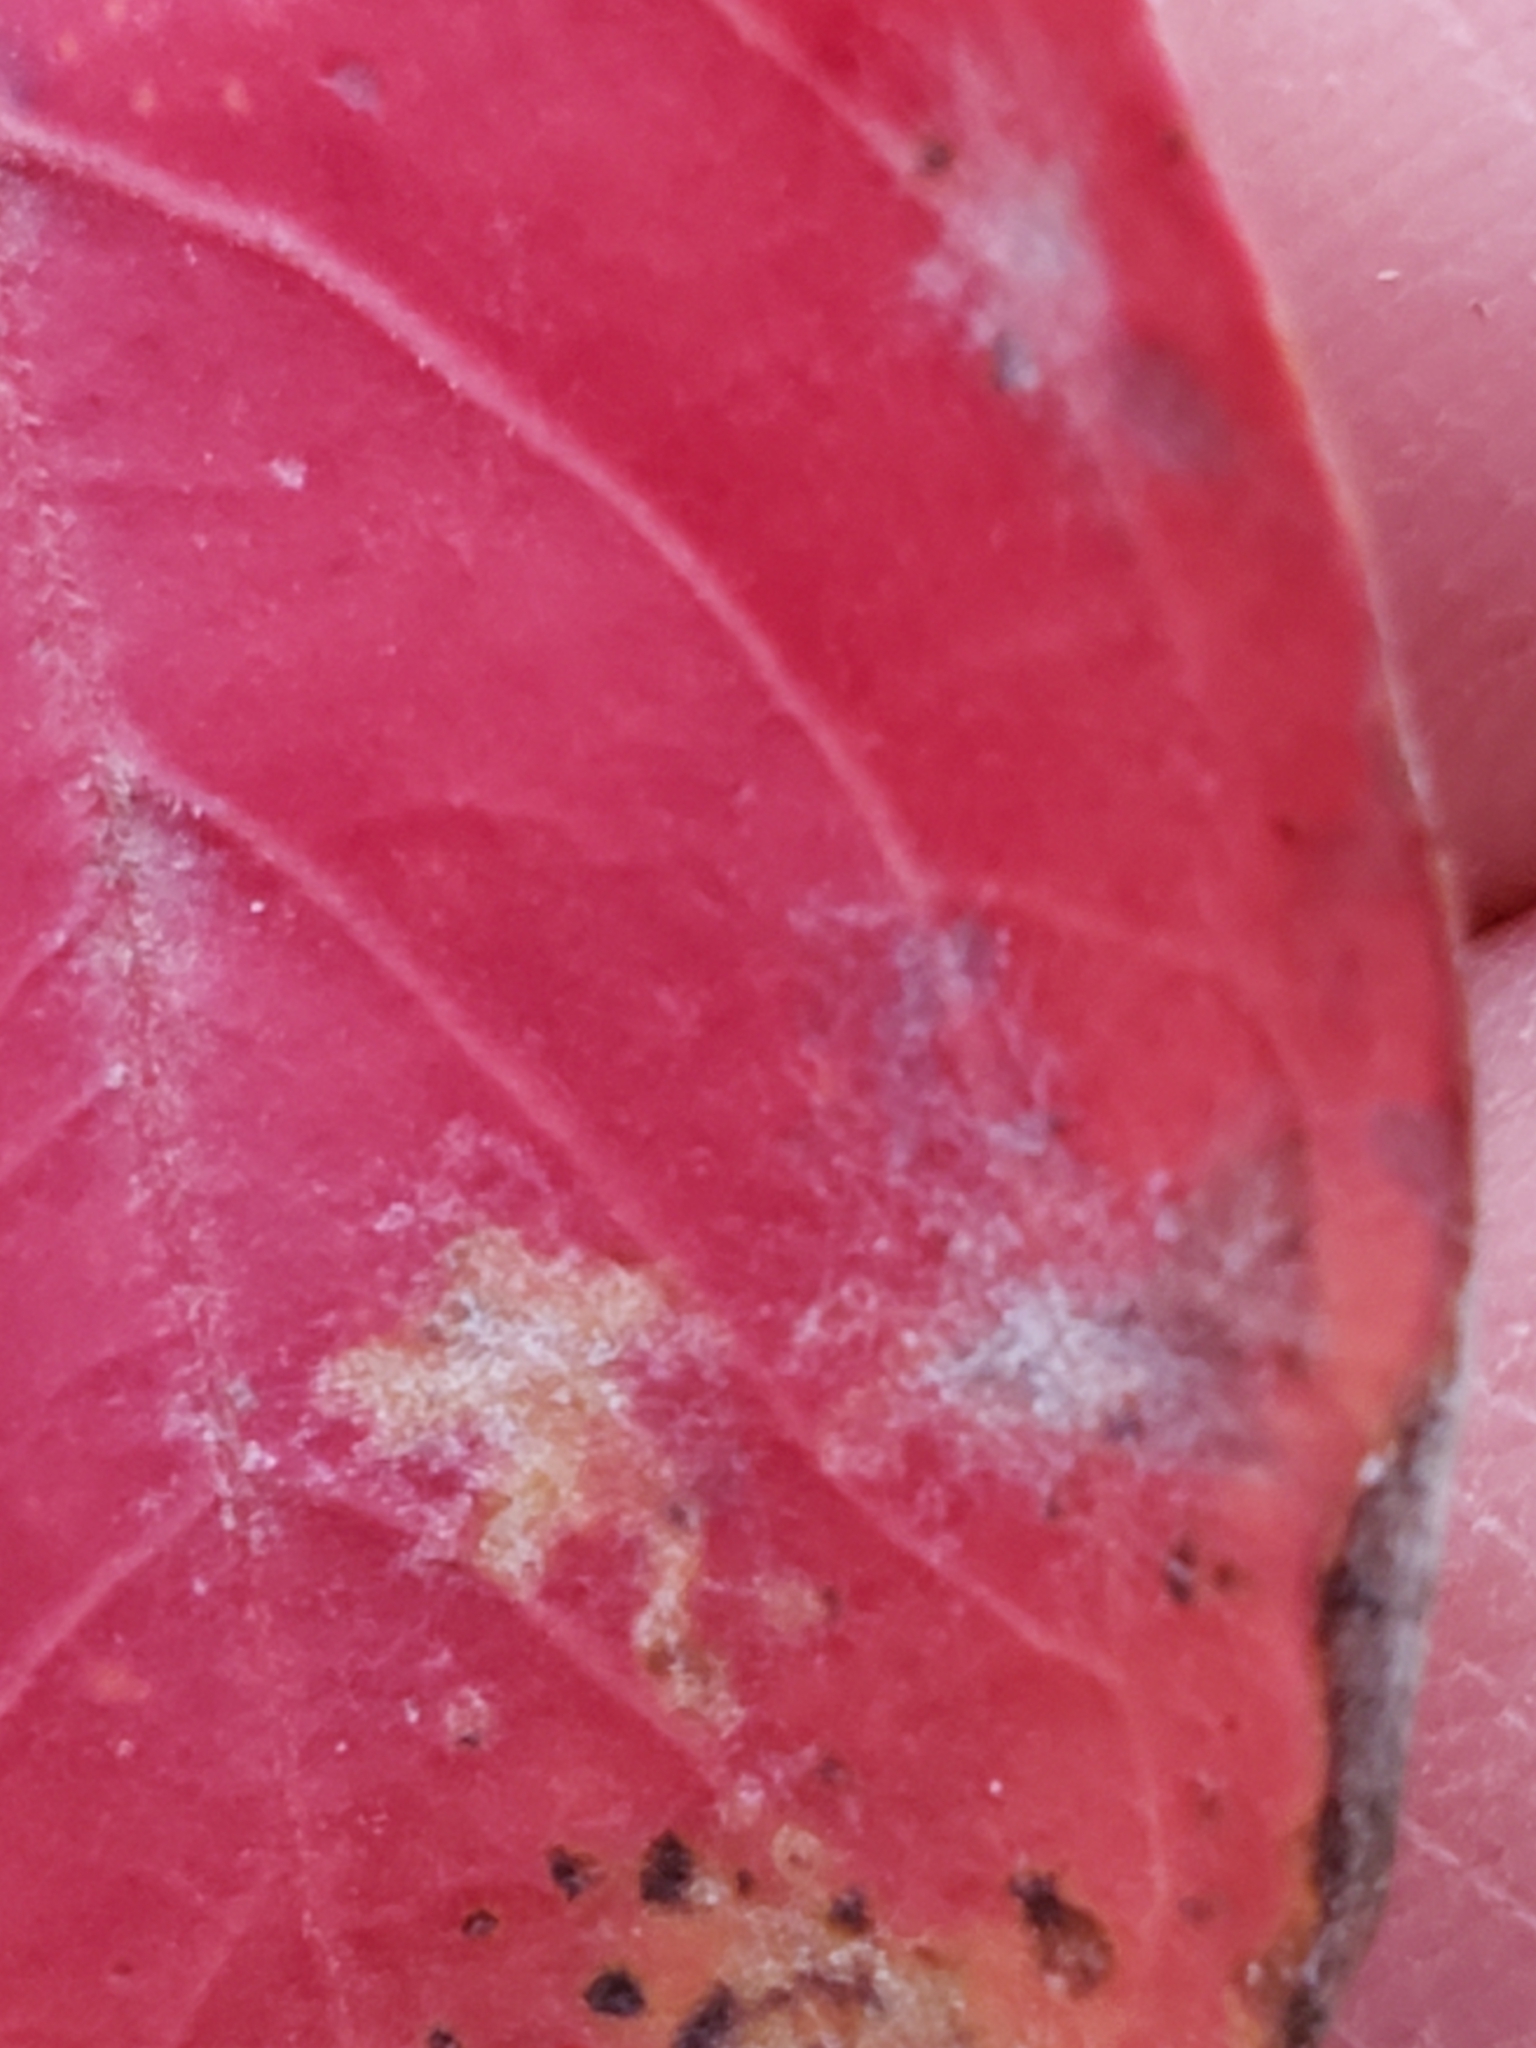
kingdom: Fungi
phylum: Ascomycota
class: Leotiomycetes
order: Helotiales
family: Erysiphaceae
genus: Erysiphe
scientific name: Erysiphe australiana
